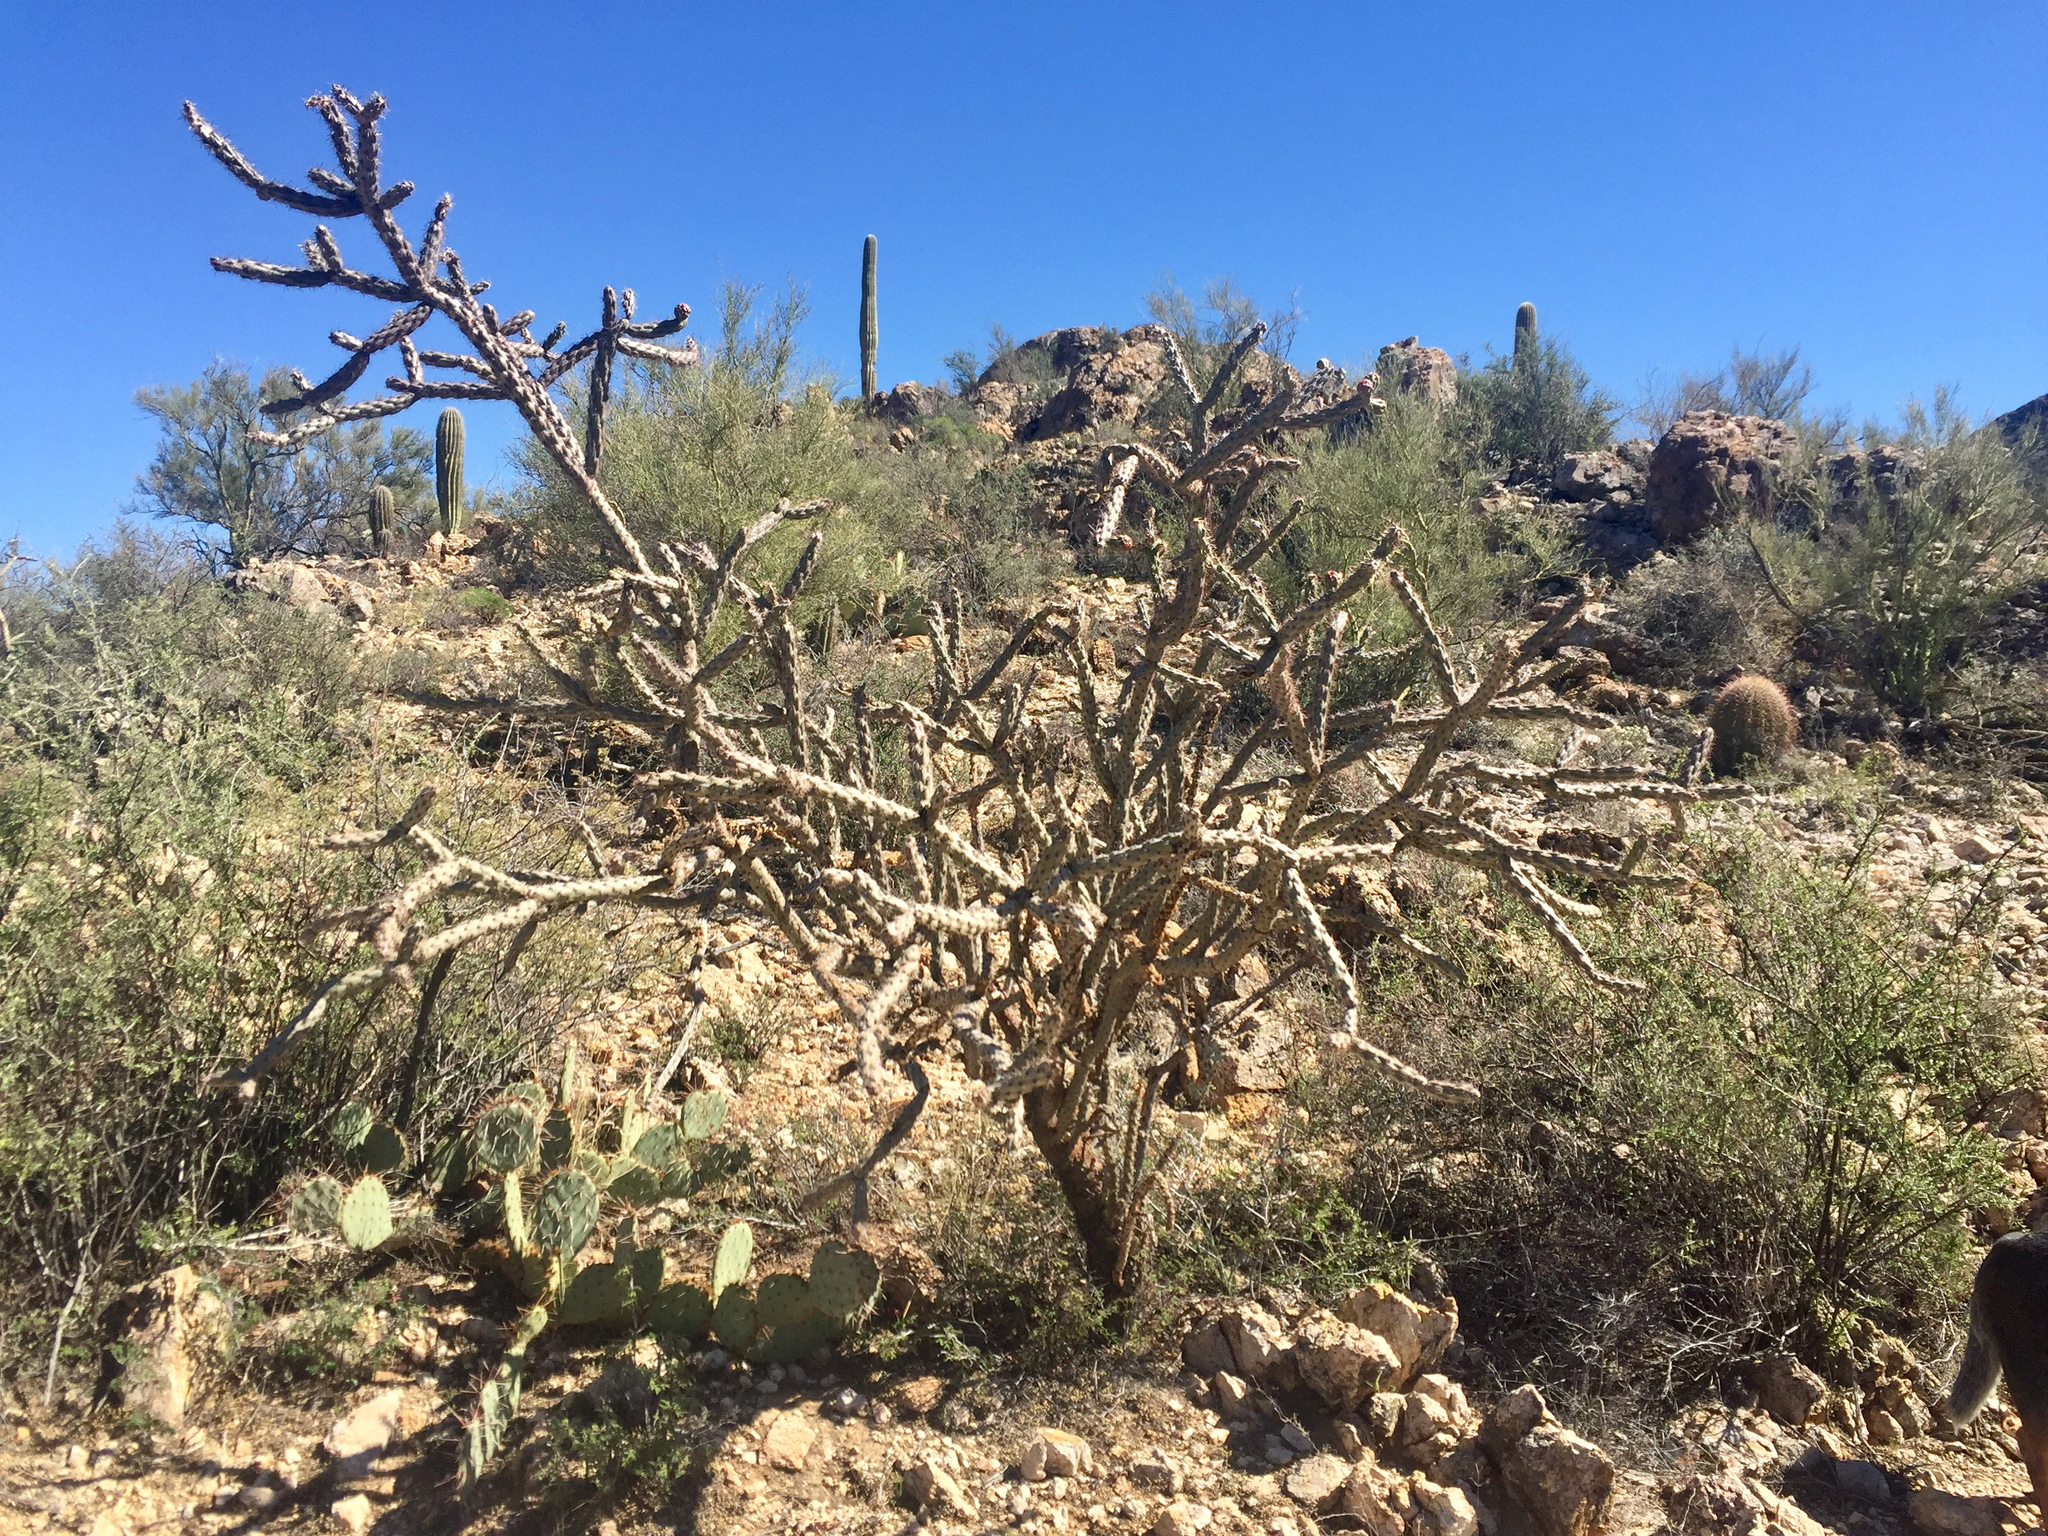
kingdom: Plantae
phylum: Tracheophyta
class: Magnoliopsida
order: Caryophyllales
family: Cactaceae
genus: Cylindropuntia
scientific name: Cylindropuntia thurberi
